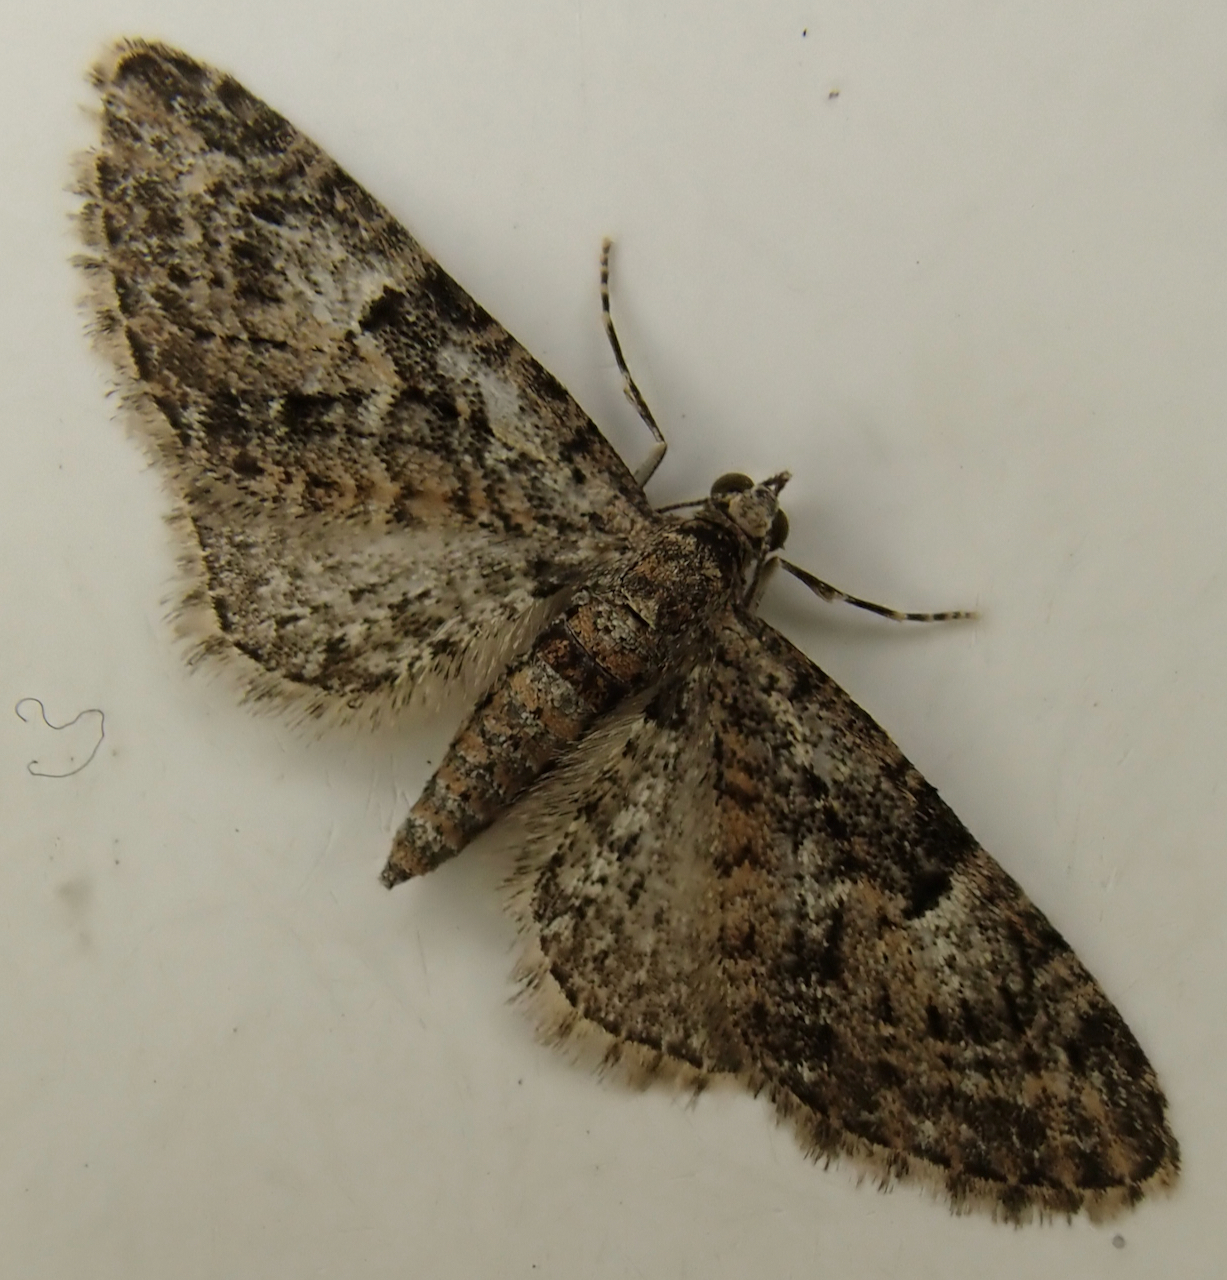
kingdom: Animalia
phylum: Arthropoda
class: Insecta
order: Lepidoptera
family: Geometridae
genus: Eupithecia
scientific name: Eupithecia abbreviata
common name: Brindled pug
